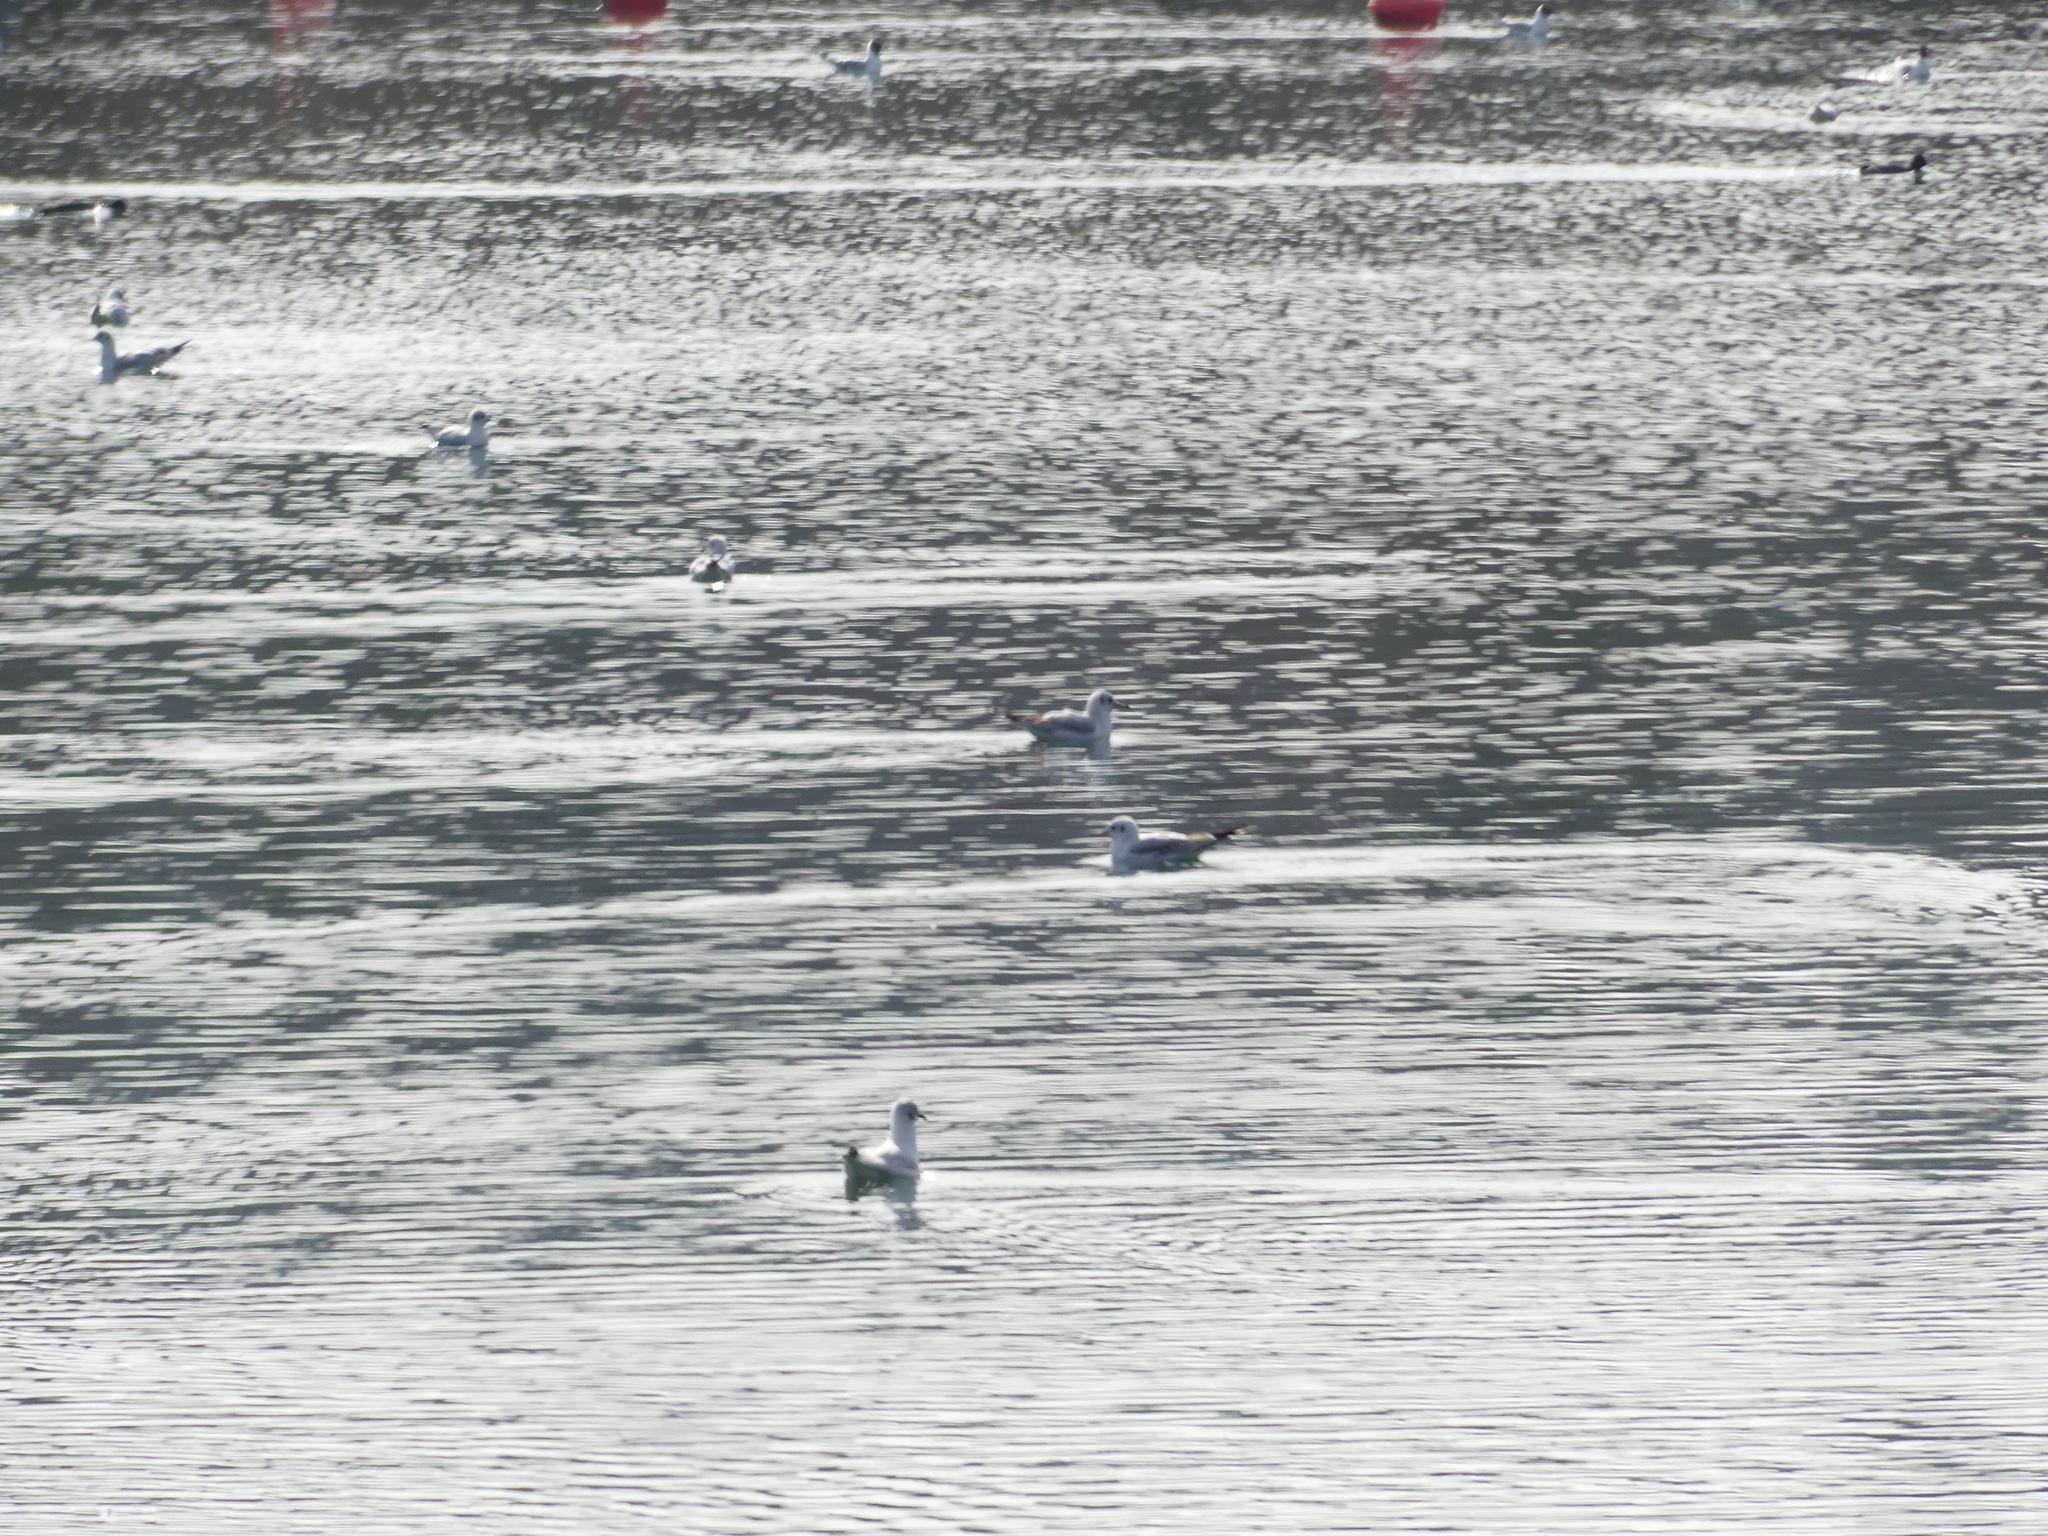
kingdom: Animalia
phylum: Chordata
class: Aves
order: Charadriiformes
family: Laridae
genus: Chroicocephalus
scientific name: Chroicocephalus ridibundus
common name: Black-headed gull
